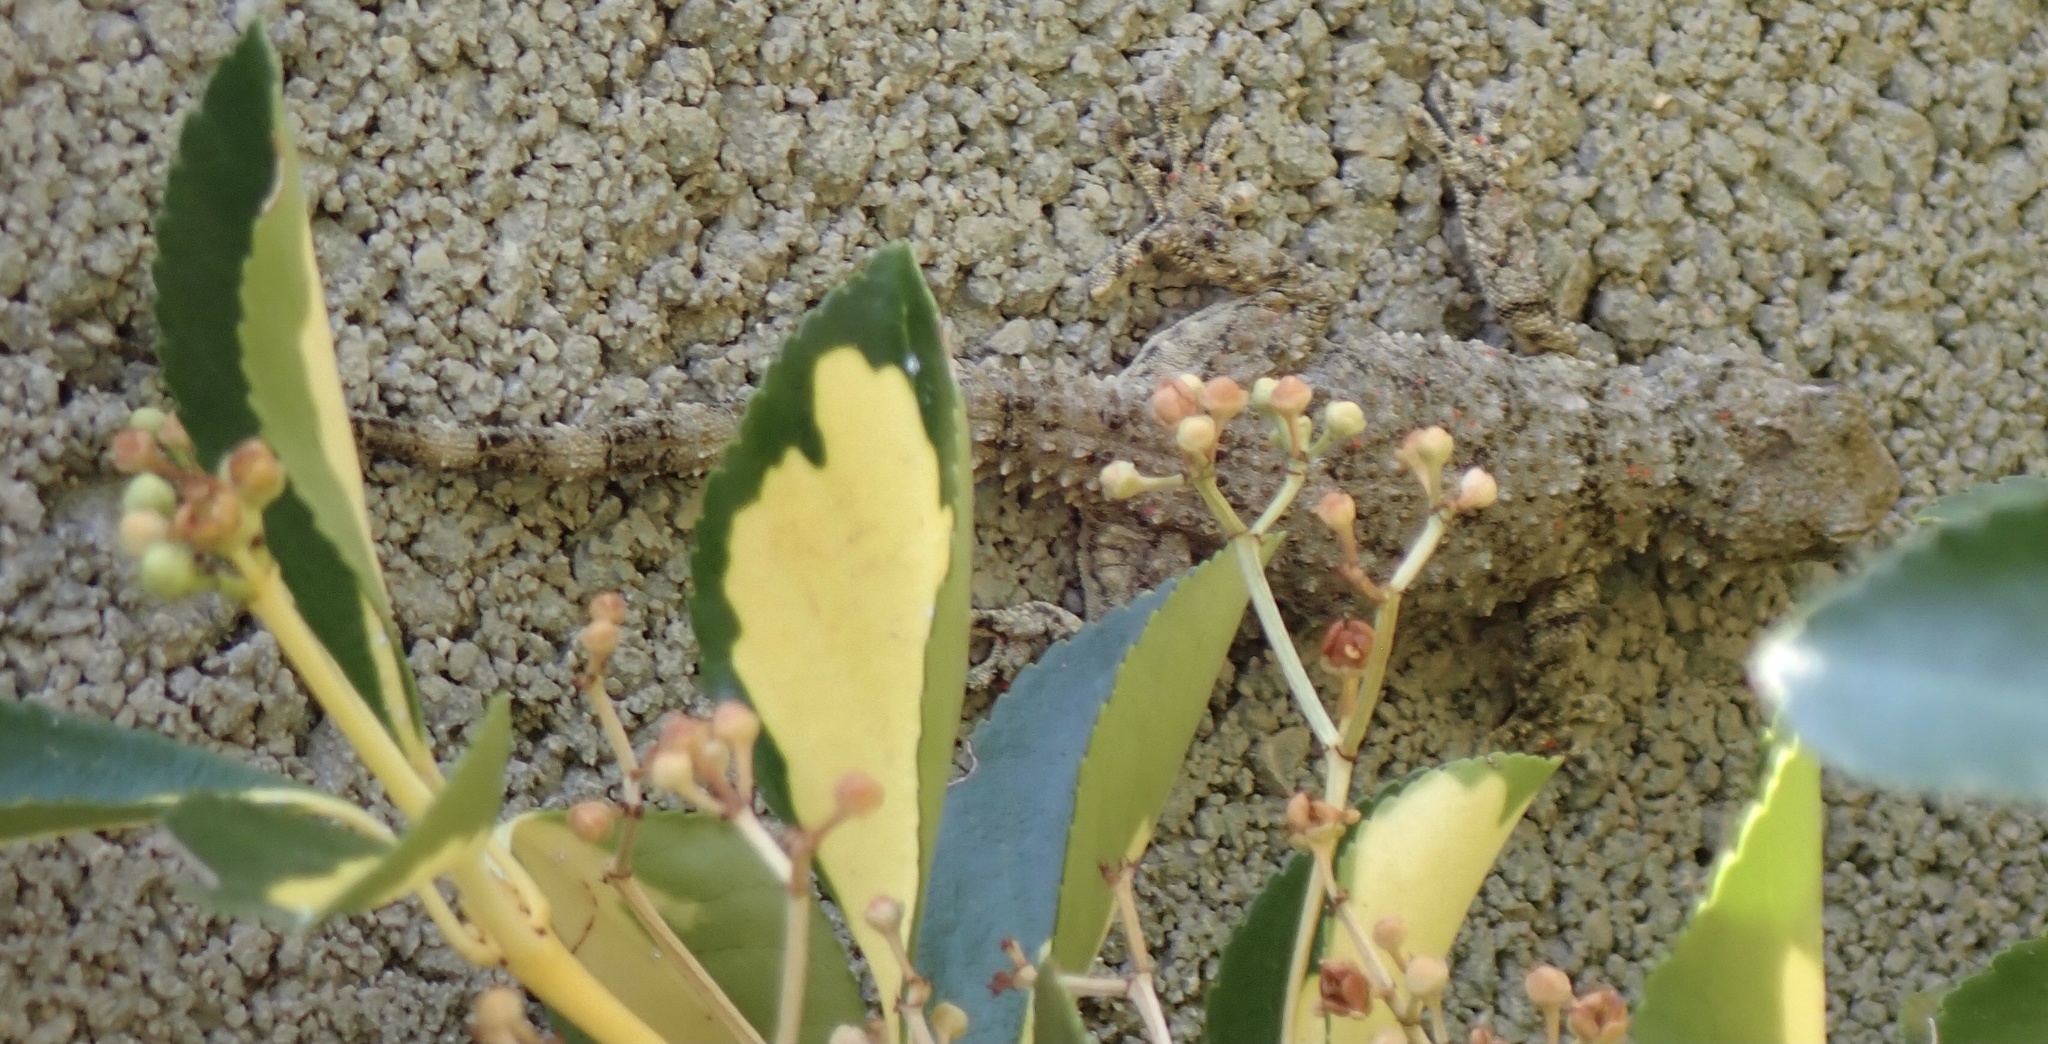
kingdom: Animalia
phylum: Chordata
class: Squamata
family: Phyllodactylidae
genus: Tarentola
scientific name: Tarentola mauritanica
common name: Moorish gecko
